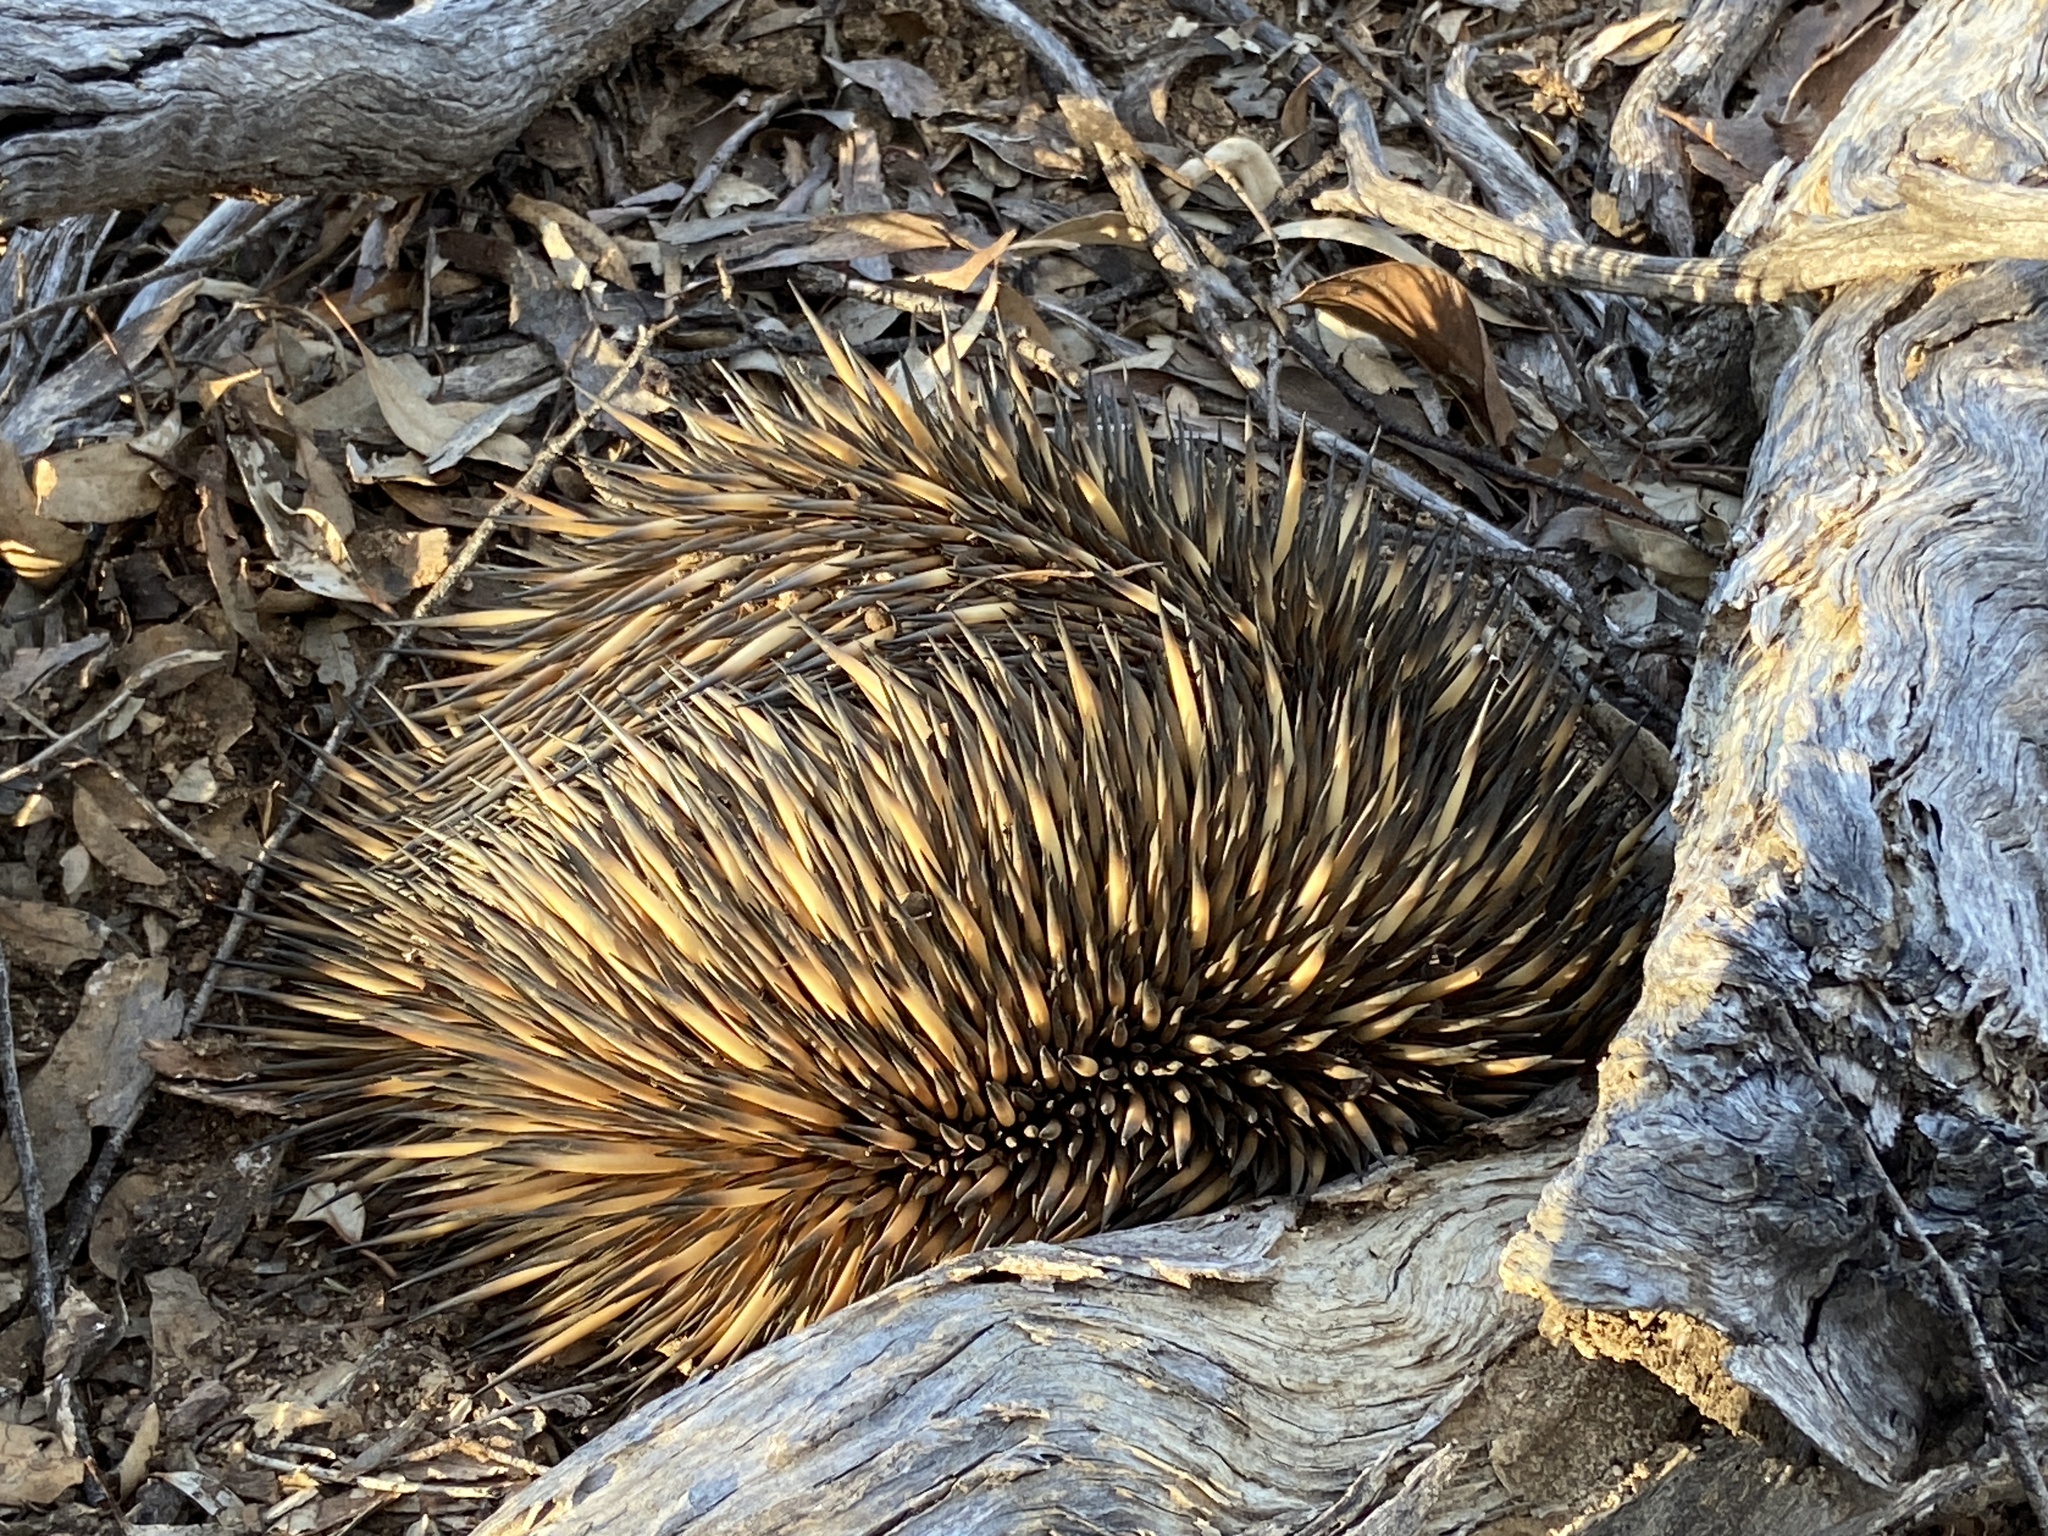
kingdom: Animalia
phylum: Chordata
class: Mammalia
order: Monotremata
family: Tachyglossidae
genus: Tachyglossus
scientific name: Tachyglossus aculeatus
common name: Short-beaked echidna
